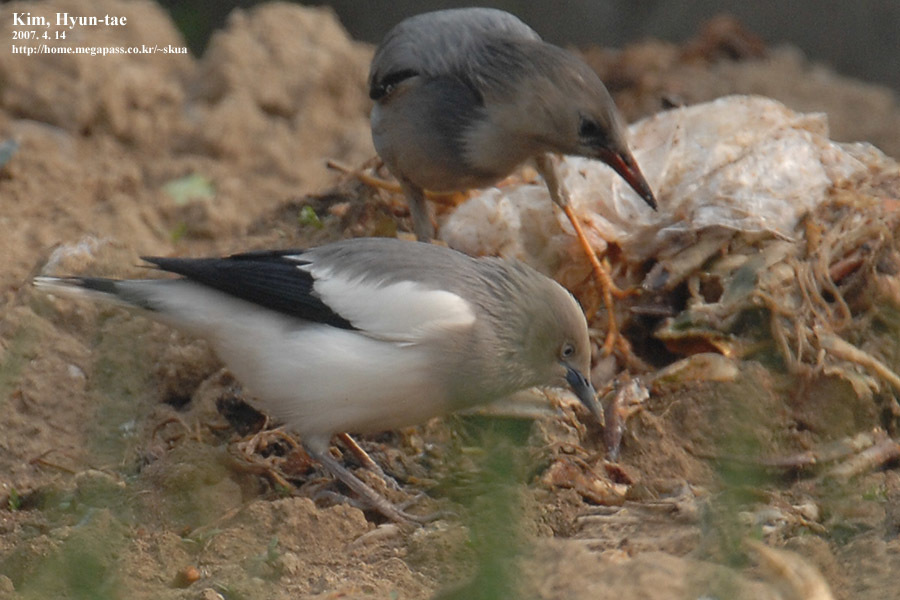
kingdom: Animalia
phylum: Chordata
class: Aves
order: Passeriformes
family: Sturnidae
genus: Sturnia
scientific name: Sturnia sinensis
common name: White-shouldered starling
